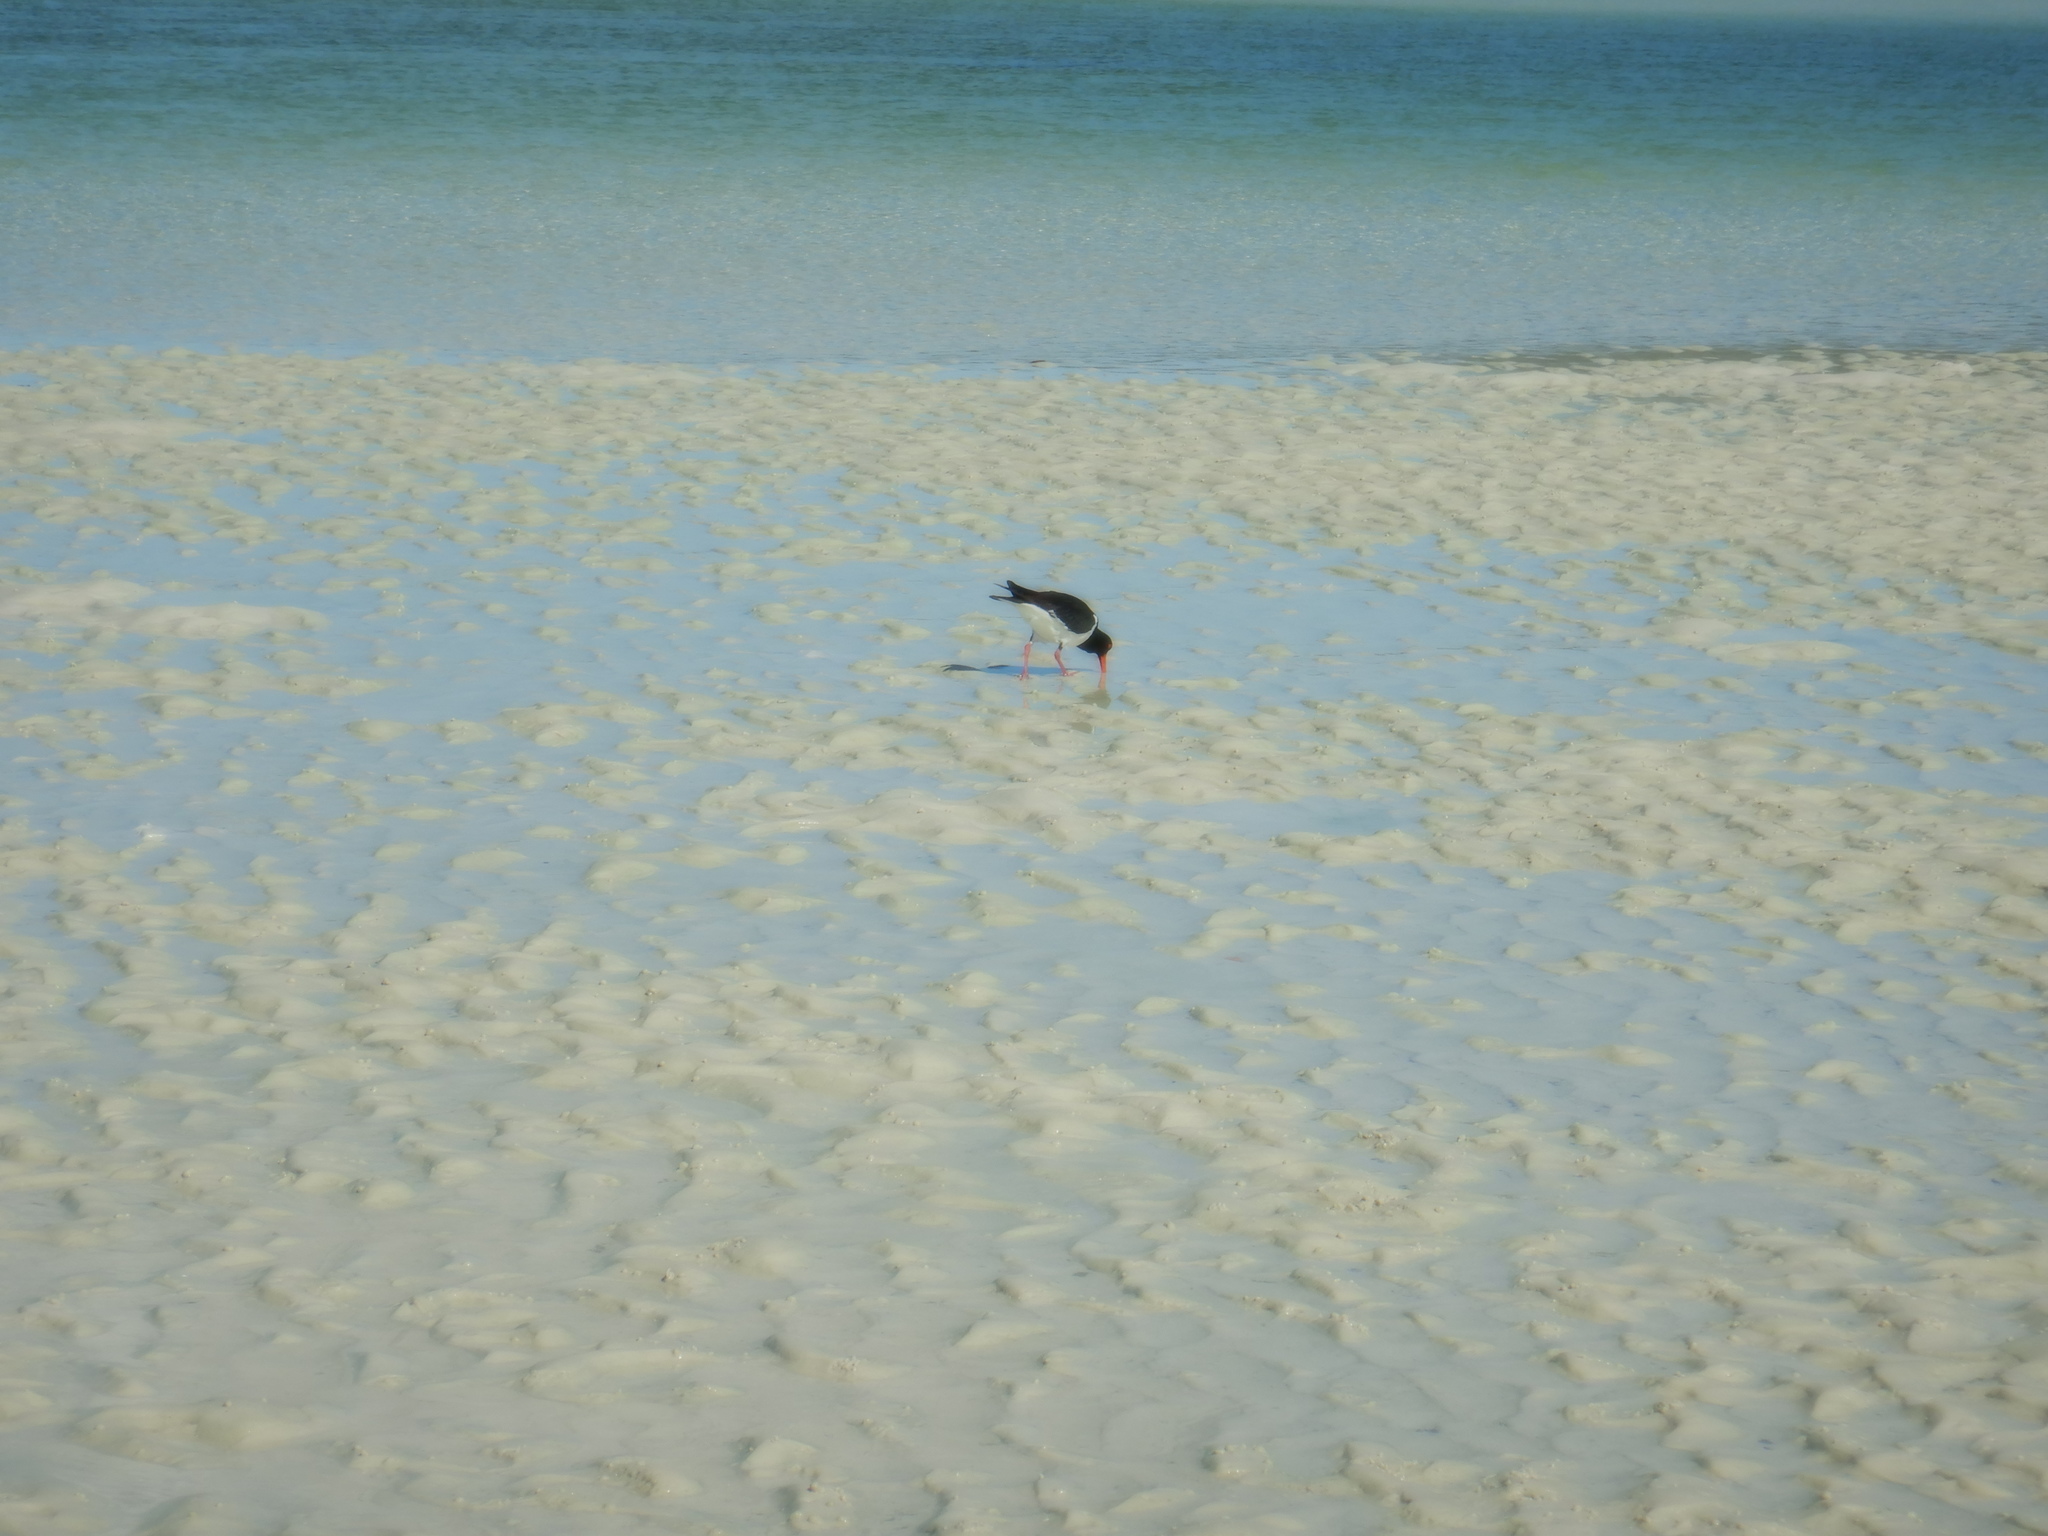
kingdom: Animalia
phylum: Chordata
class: Aves
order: Charadriiformes
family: Haematopodidae
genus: Haematopus
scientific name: Haematopus longirostris
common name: Pied oystercatcher
